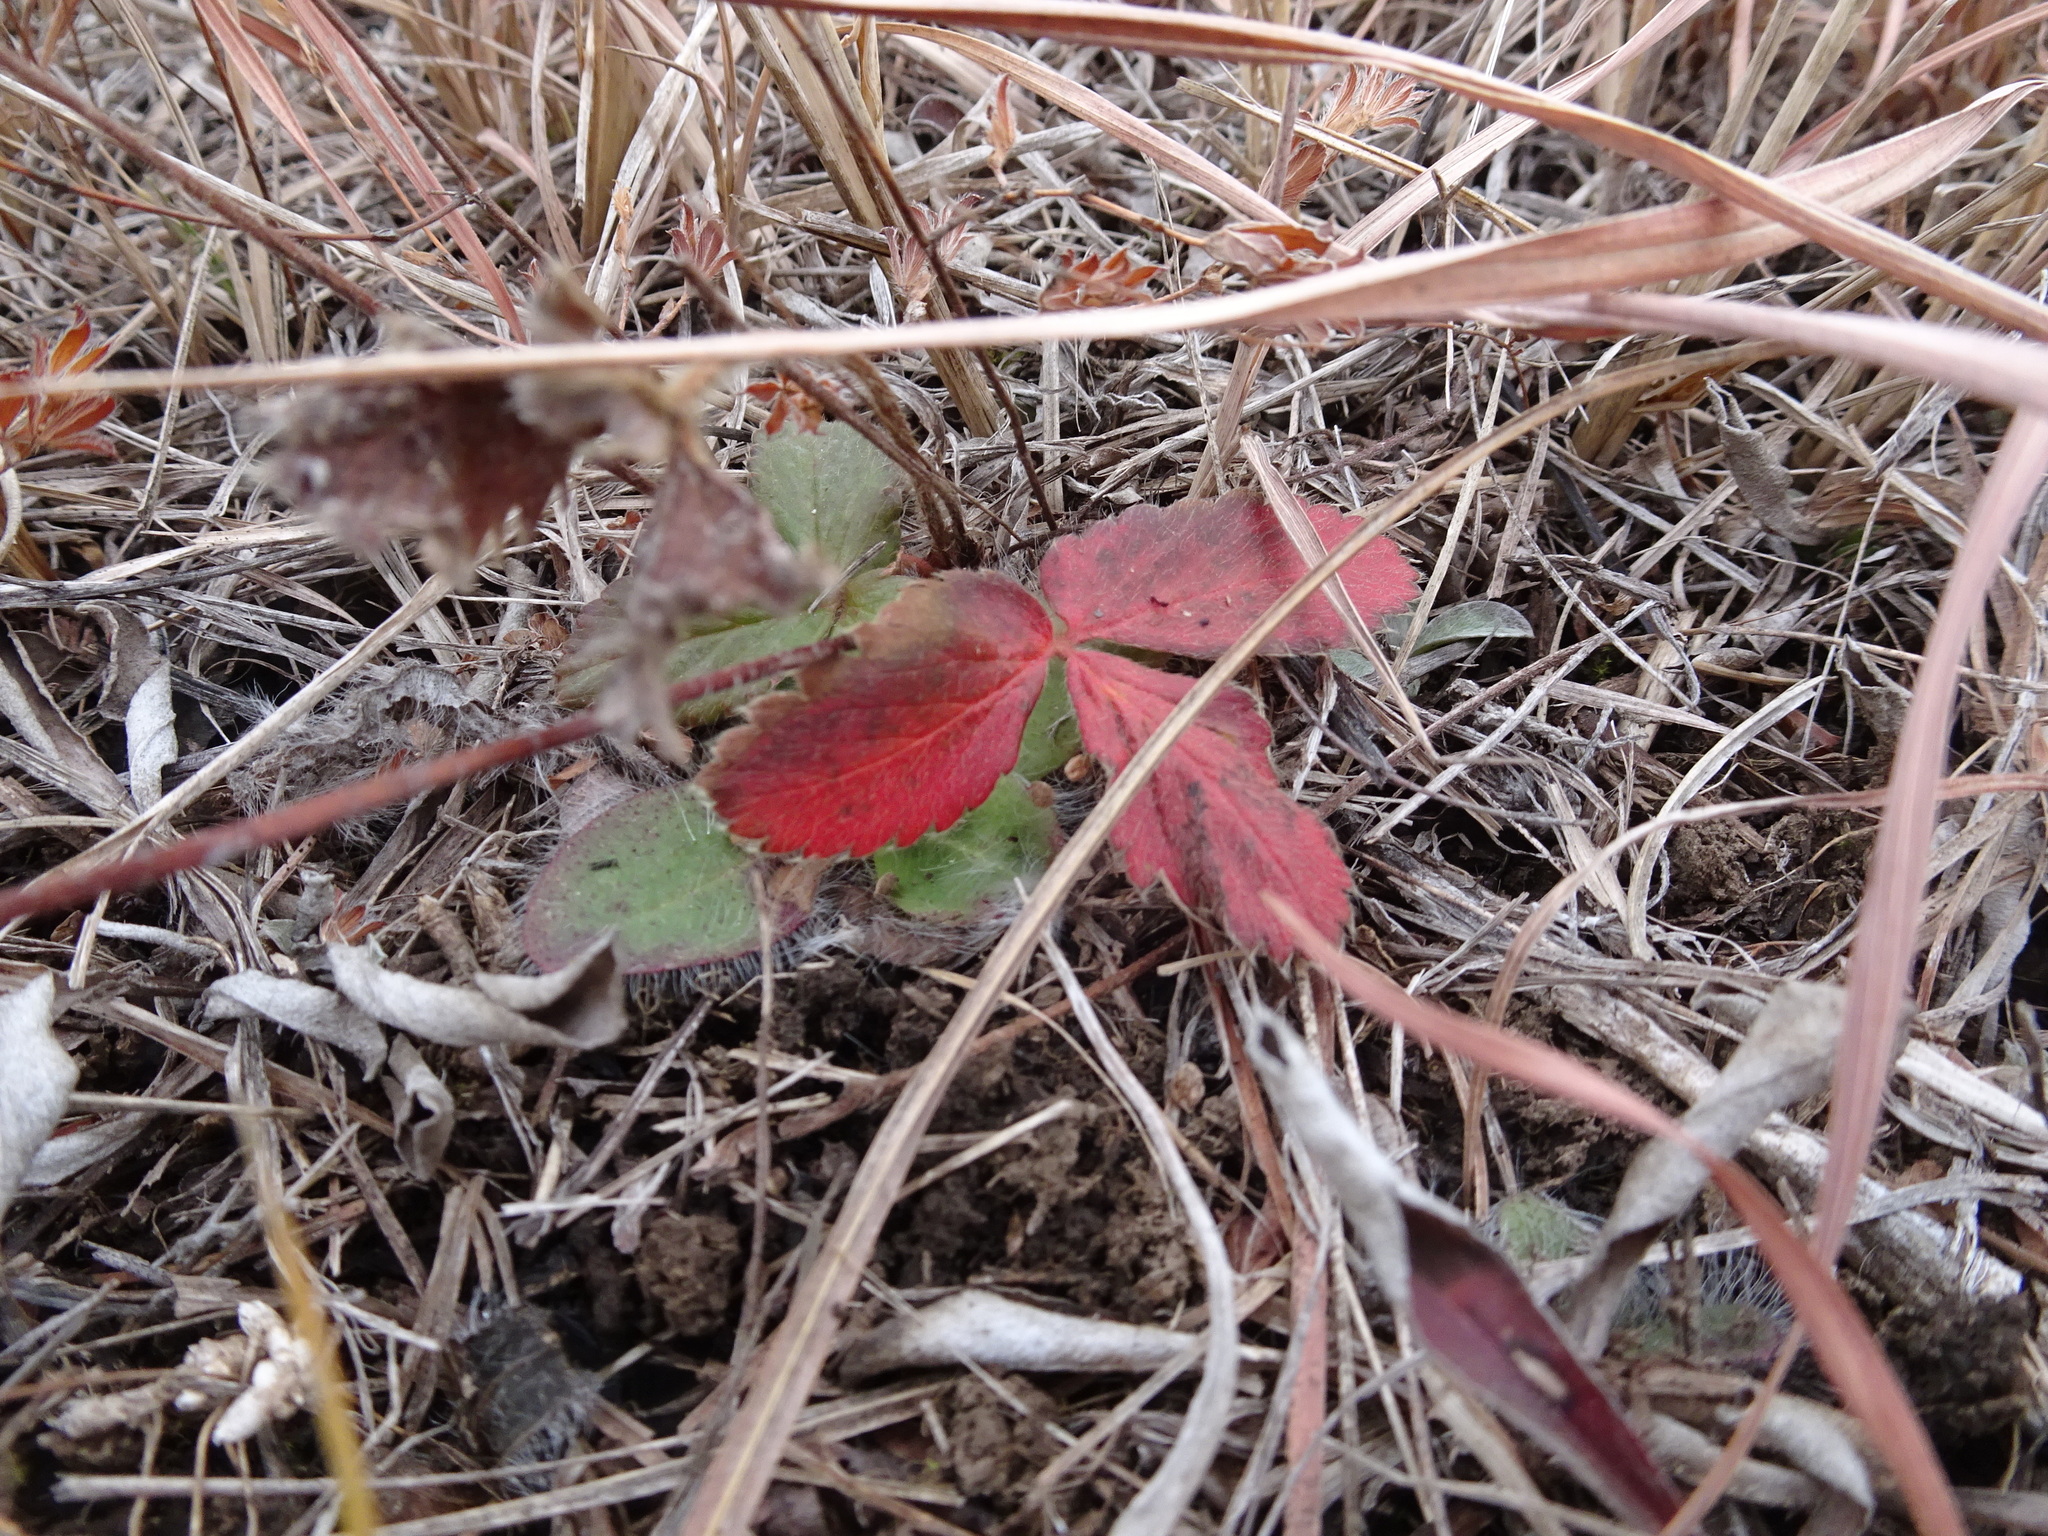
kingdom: Plantae
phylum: Tracheophyta
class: Magnoliopsida
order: Rosales
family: Rosaceae
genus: Fragaria
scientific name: Fragaria virginiana
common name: Thickleaved wild strawberry
